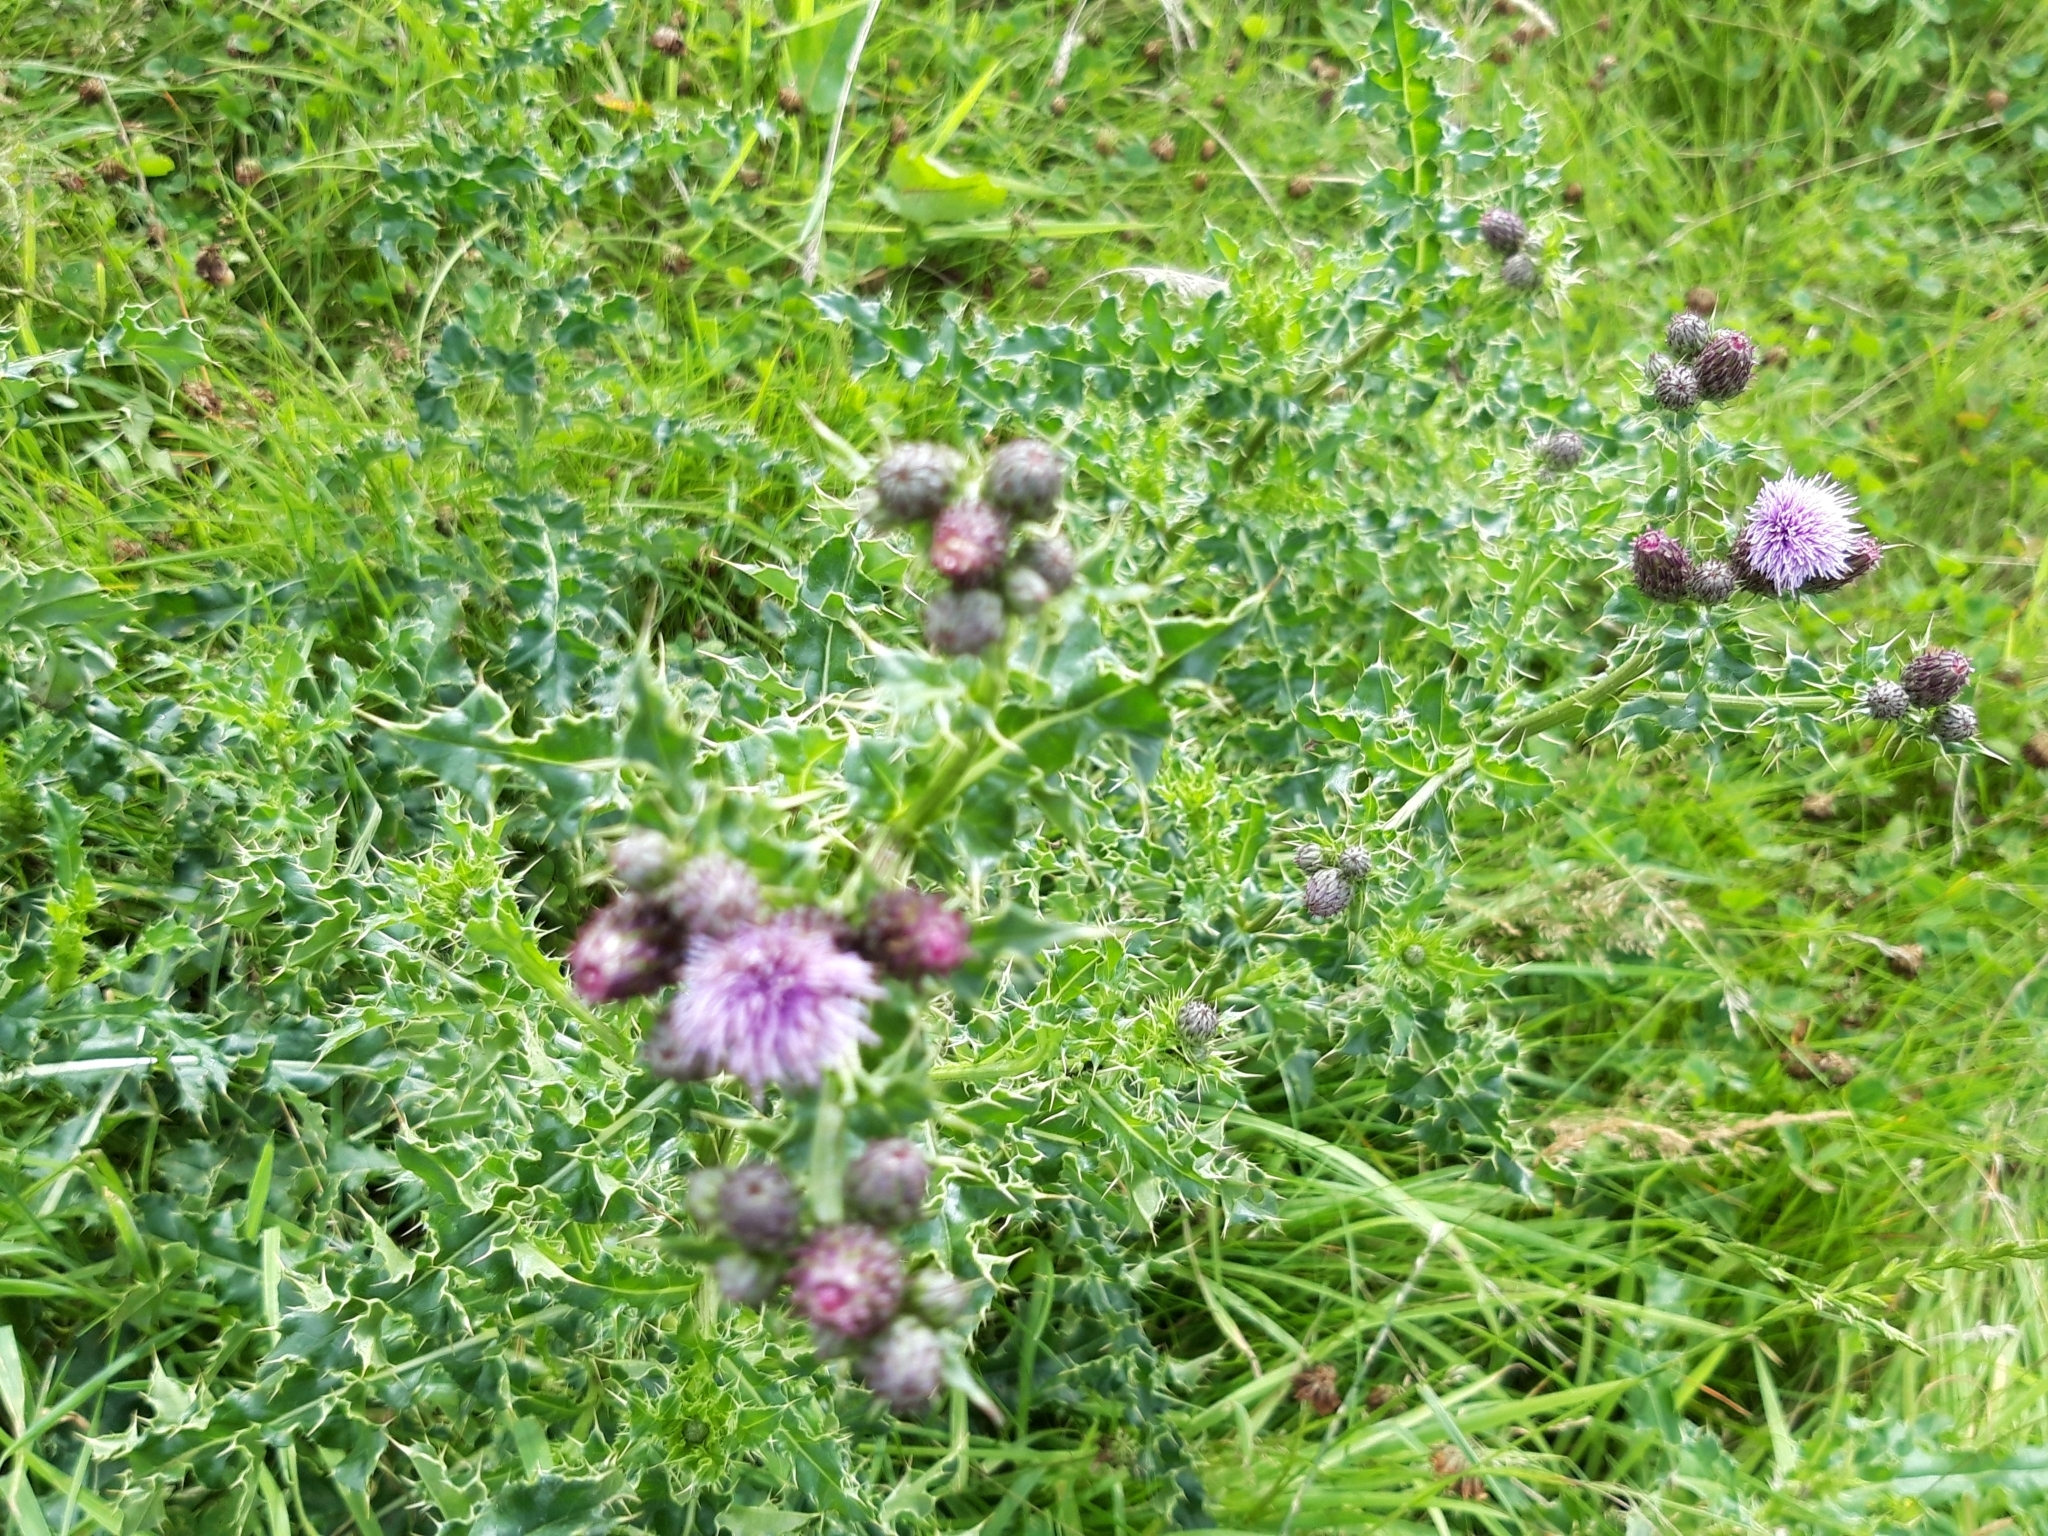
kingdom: Plantae
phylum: Tracheophyta
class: Magnoliopsida
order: Asterales
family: Asteraceae
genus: Cirsium
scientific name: Cirsium arvense
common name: Creeping thistle
